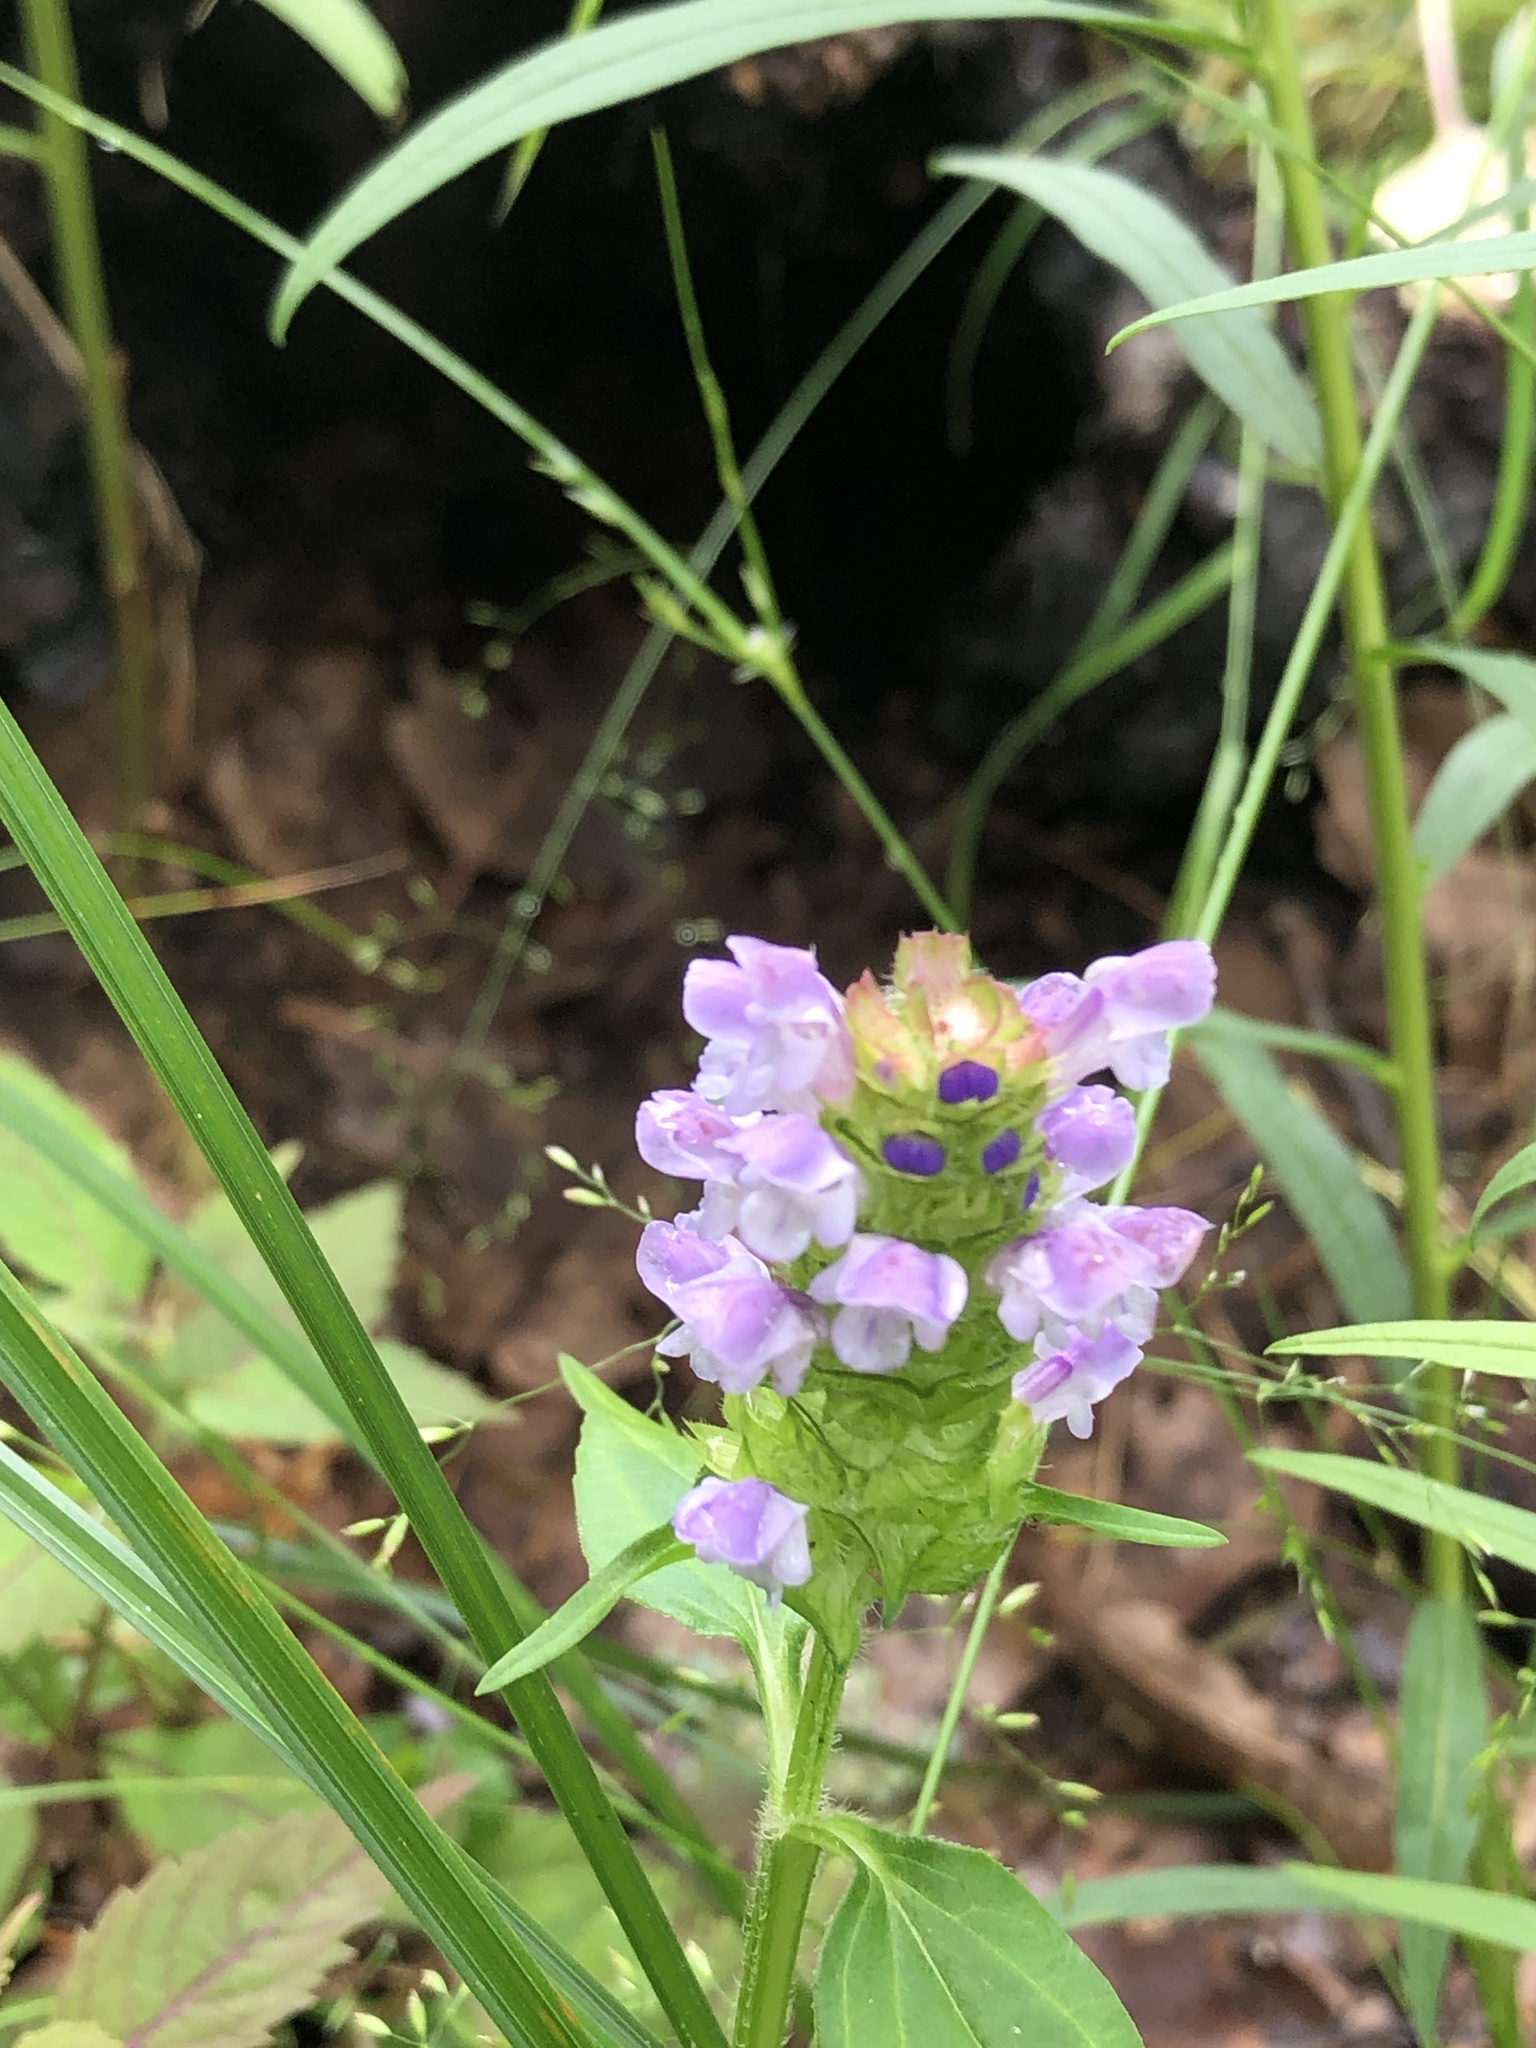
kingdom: Plantae
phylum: Tracheophyta
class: Magnoliopsida
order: Lamiales
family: Lamiaceae
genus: Prunella
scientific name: Prunella vulgaris
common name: Heal-all
